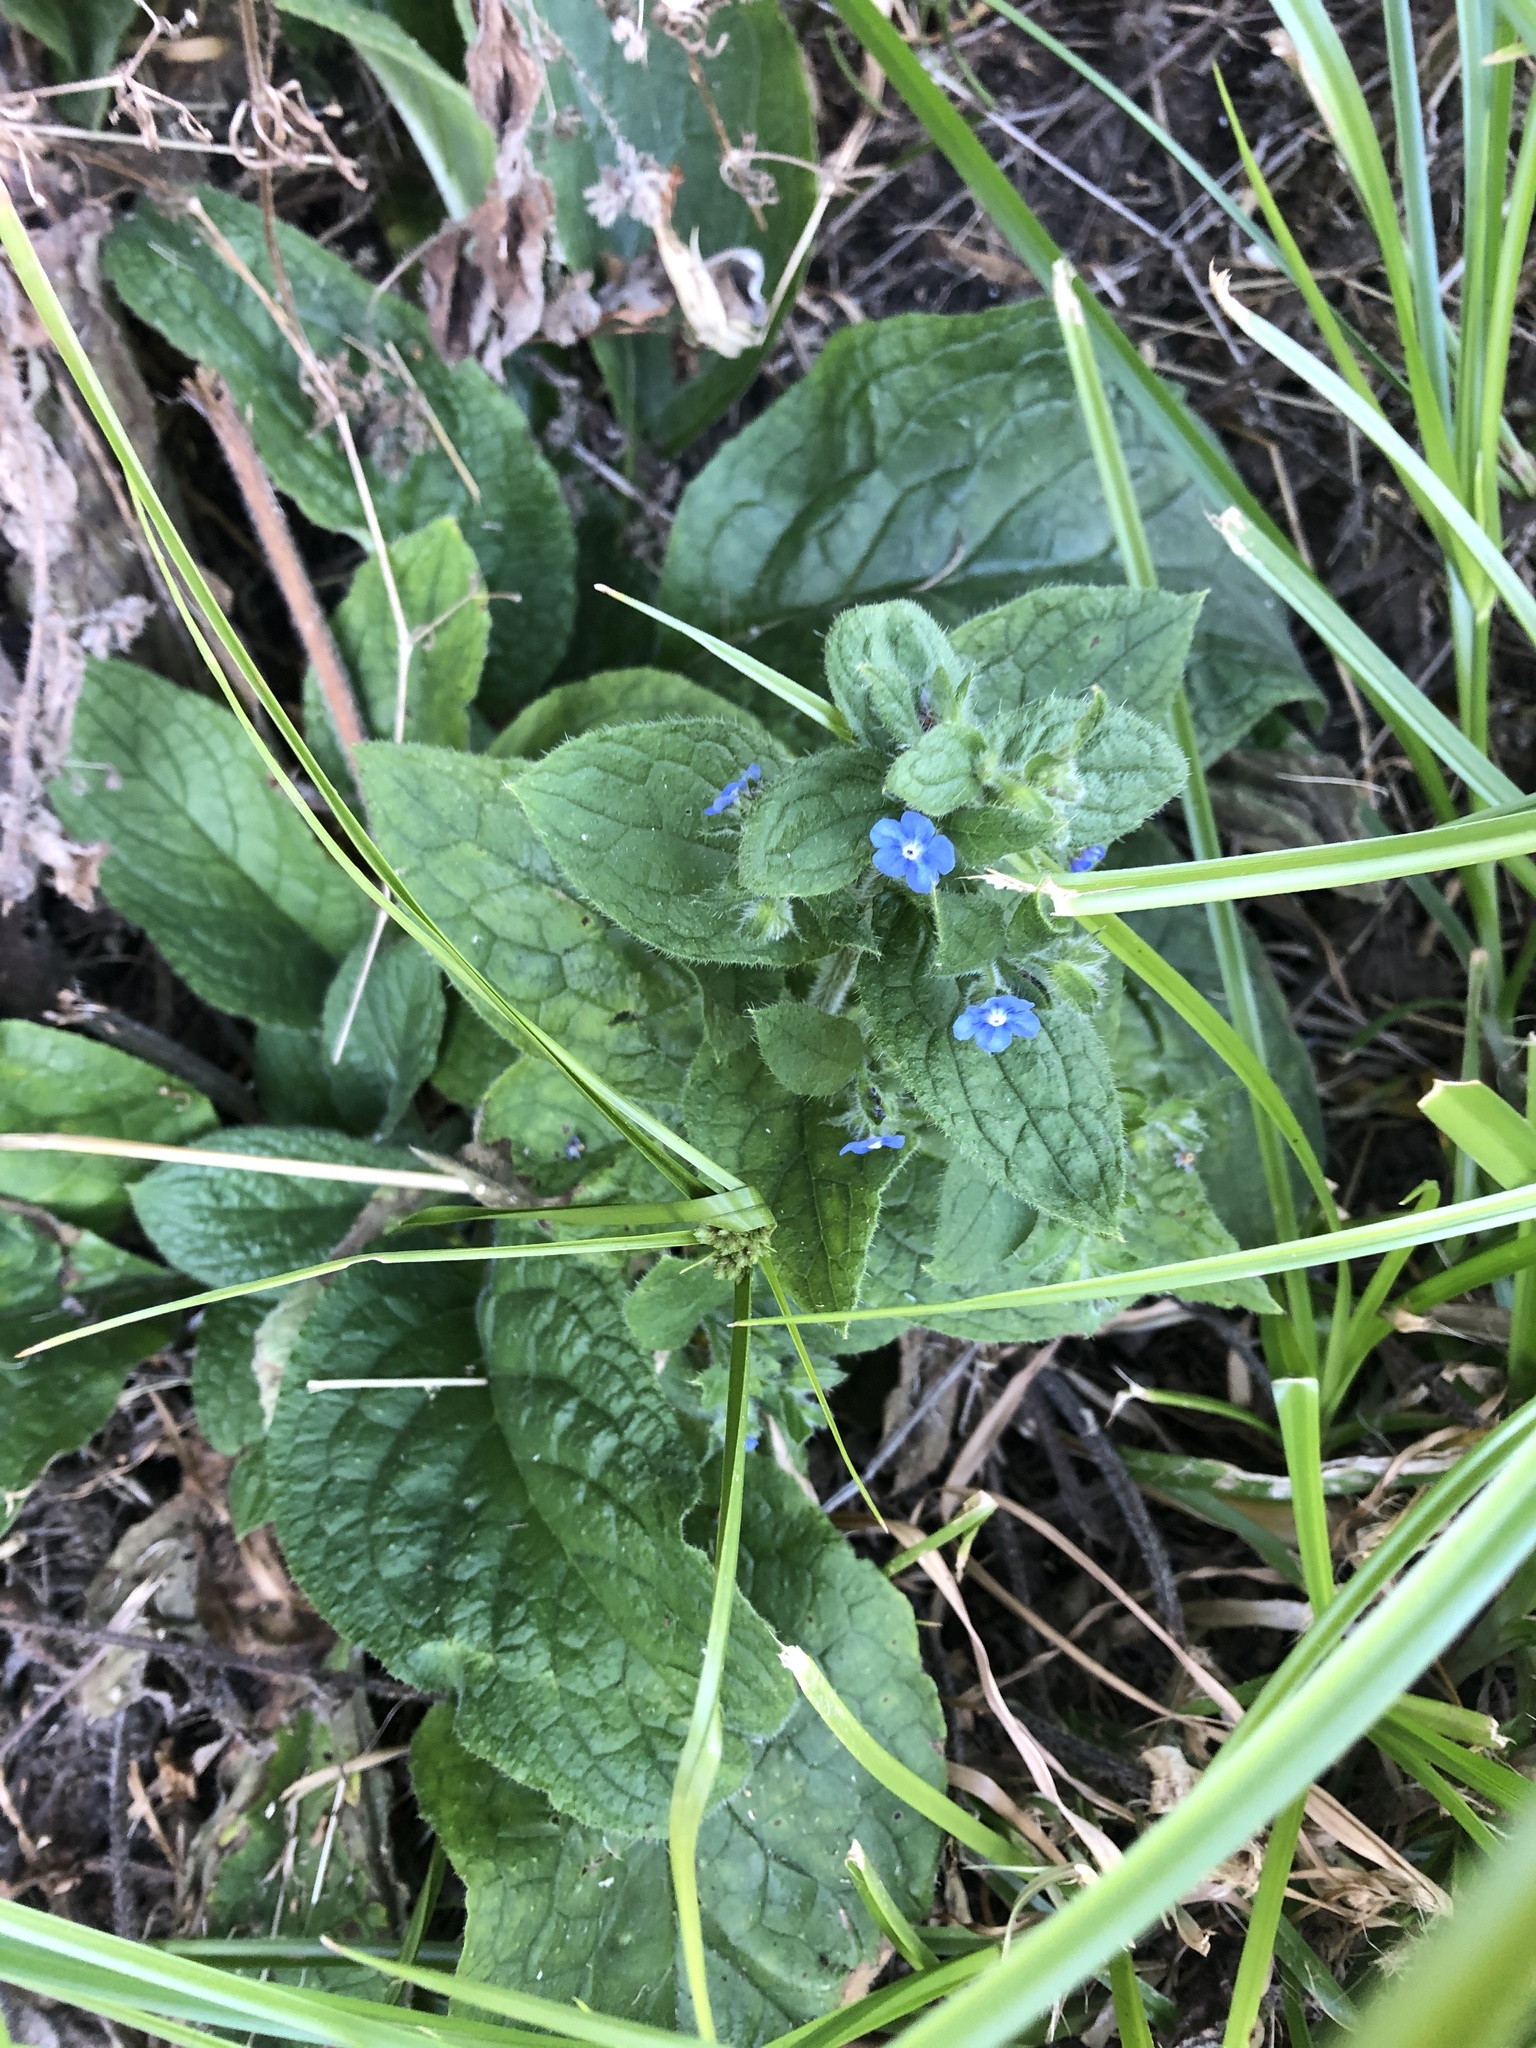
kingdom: Plantae
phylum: Tracheophyta
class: Magnoliopsida
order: Boraginales
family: Boraginaceae
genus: Pentaglottis
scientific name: Pentaglottis sempervirens
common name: Green alkanet
